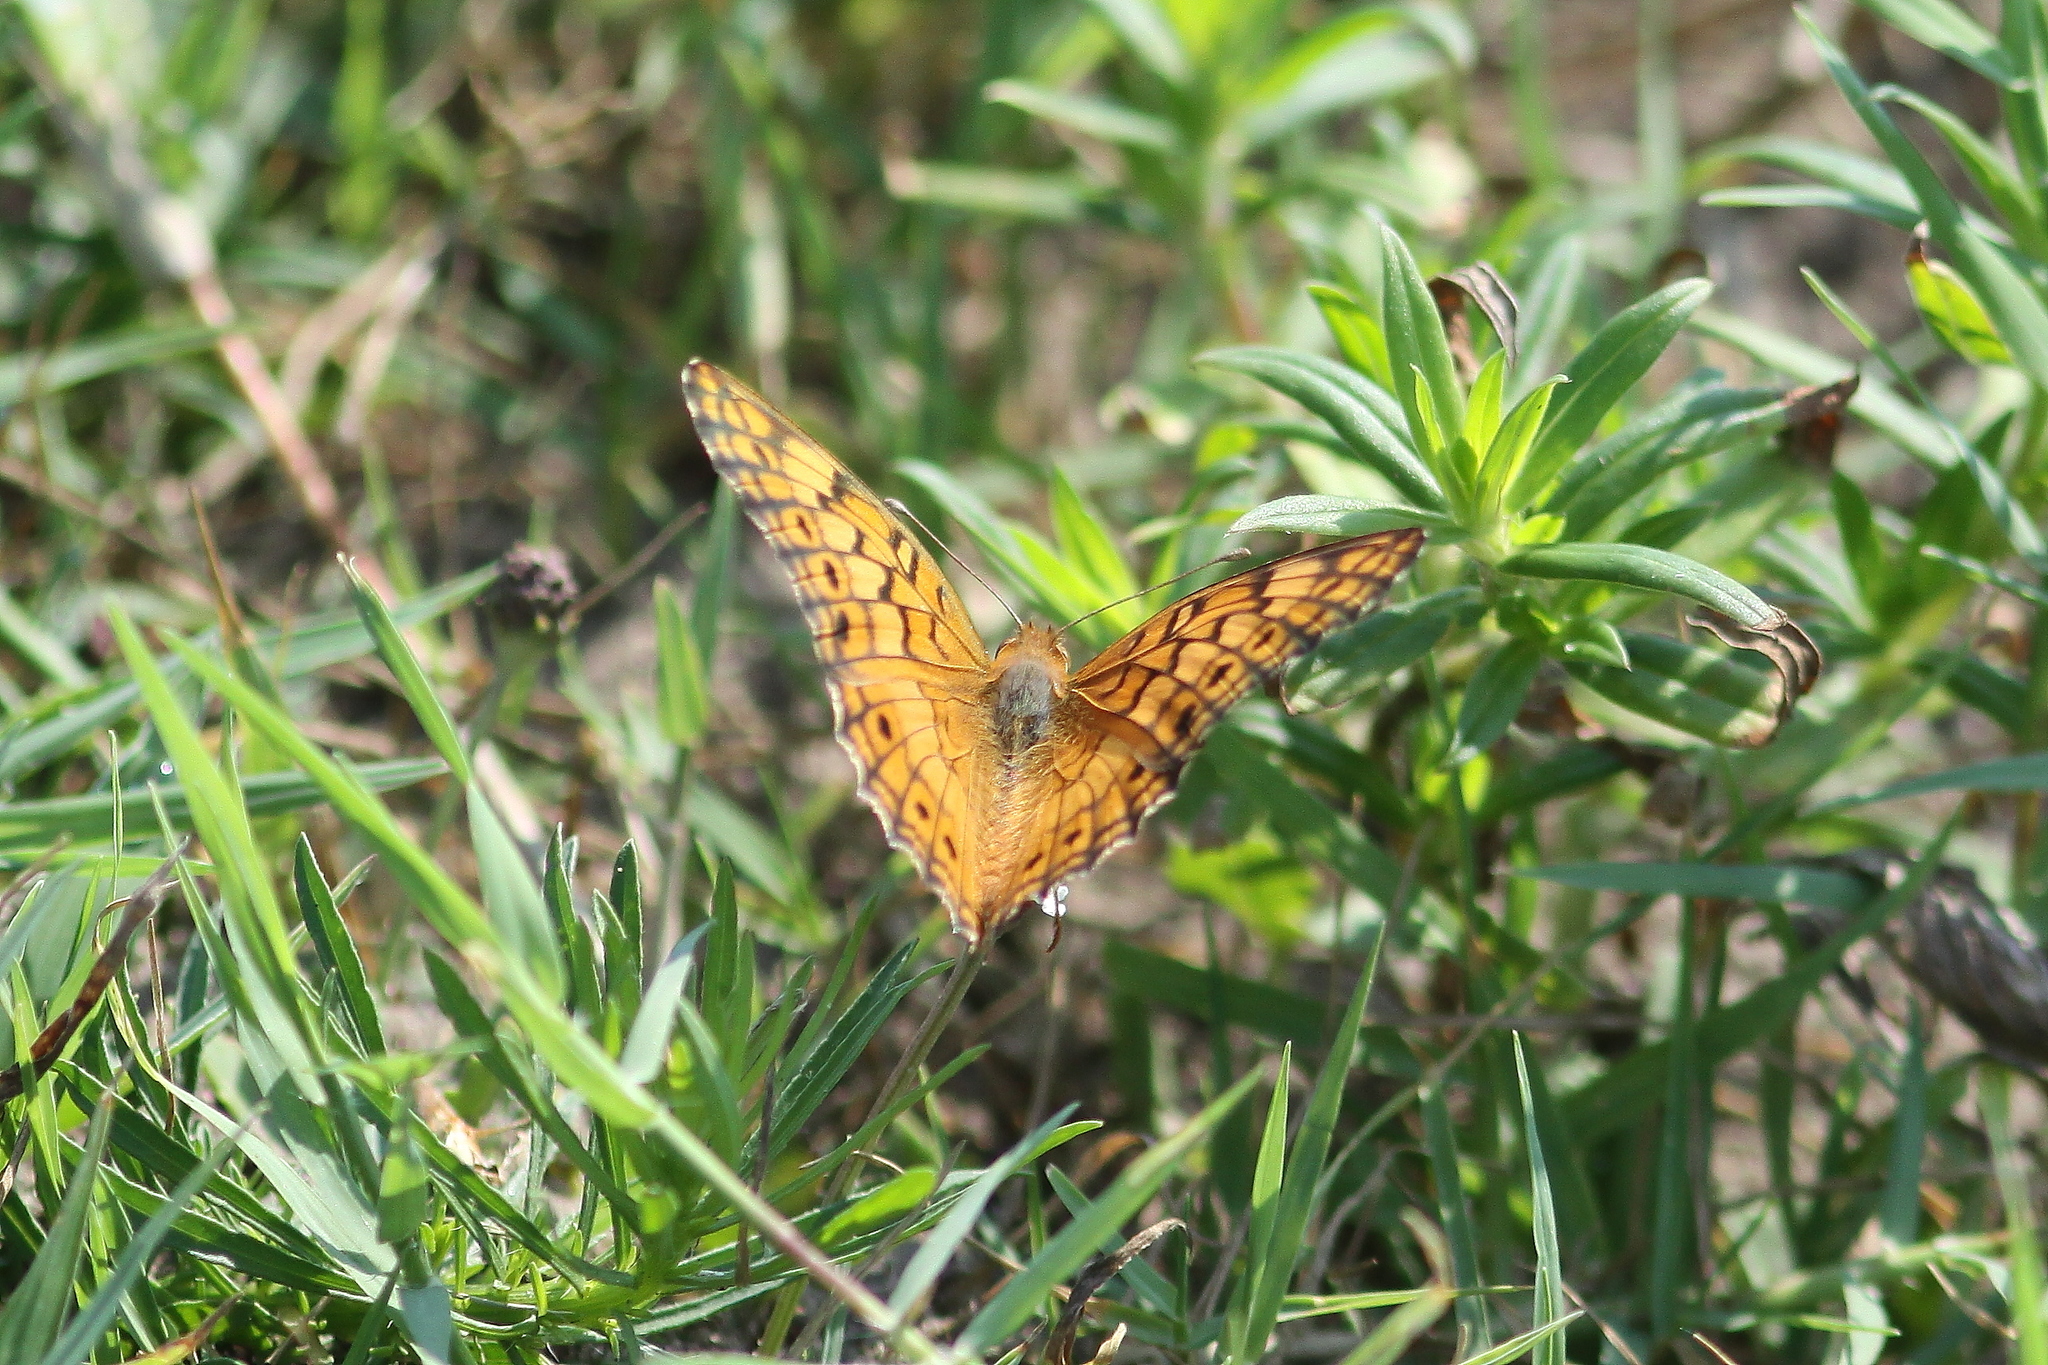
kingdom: Animalia
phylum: Arthropoda
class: Insecta
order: Lepidoptera
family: Nymphalidae
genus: Euptoieta
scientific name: Euptoieta claudia
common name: Variegated fritillary
